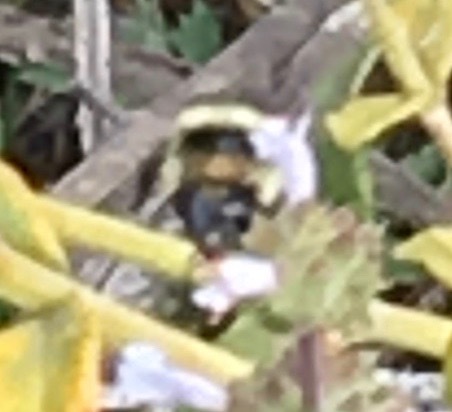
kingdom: Animalia
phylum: Arthropoda
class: Insecta
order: Hymenoptera
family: Apidae
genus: Bombus
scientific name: Bombus melanopygus
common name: Black tail bumble bee
